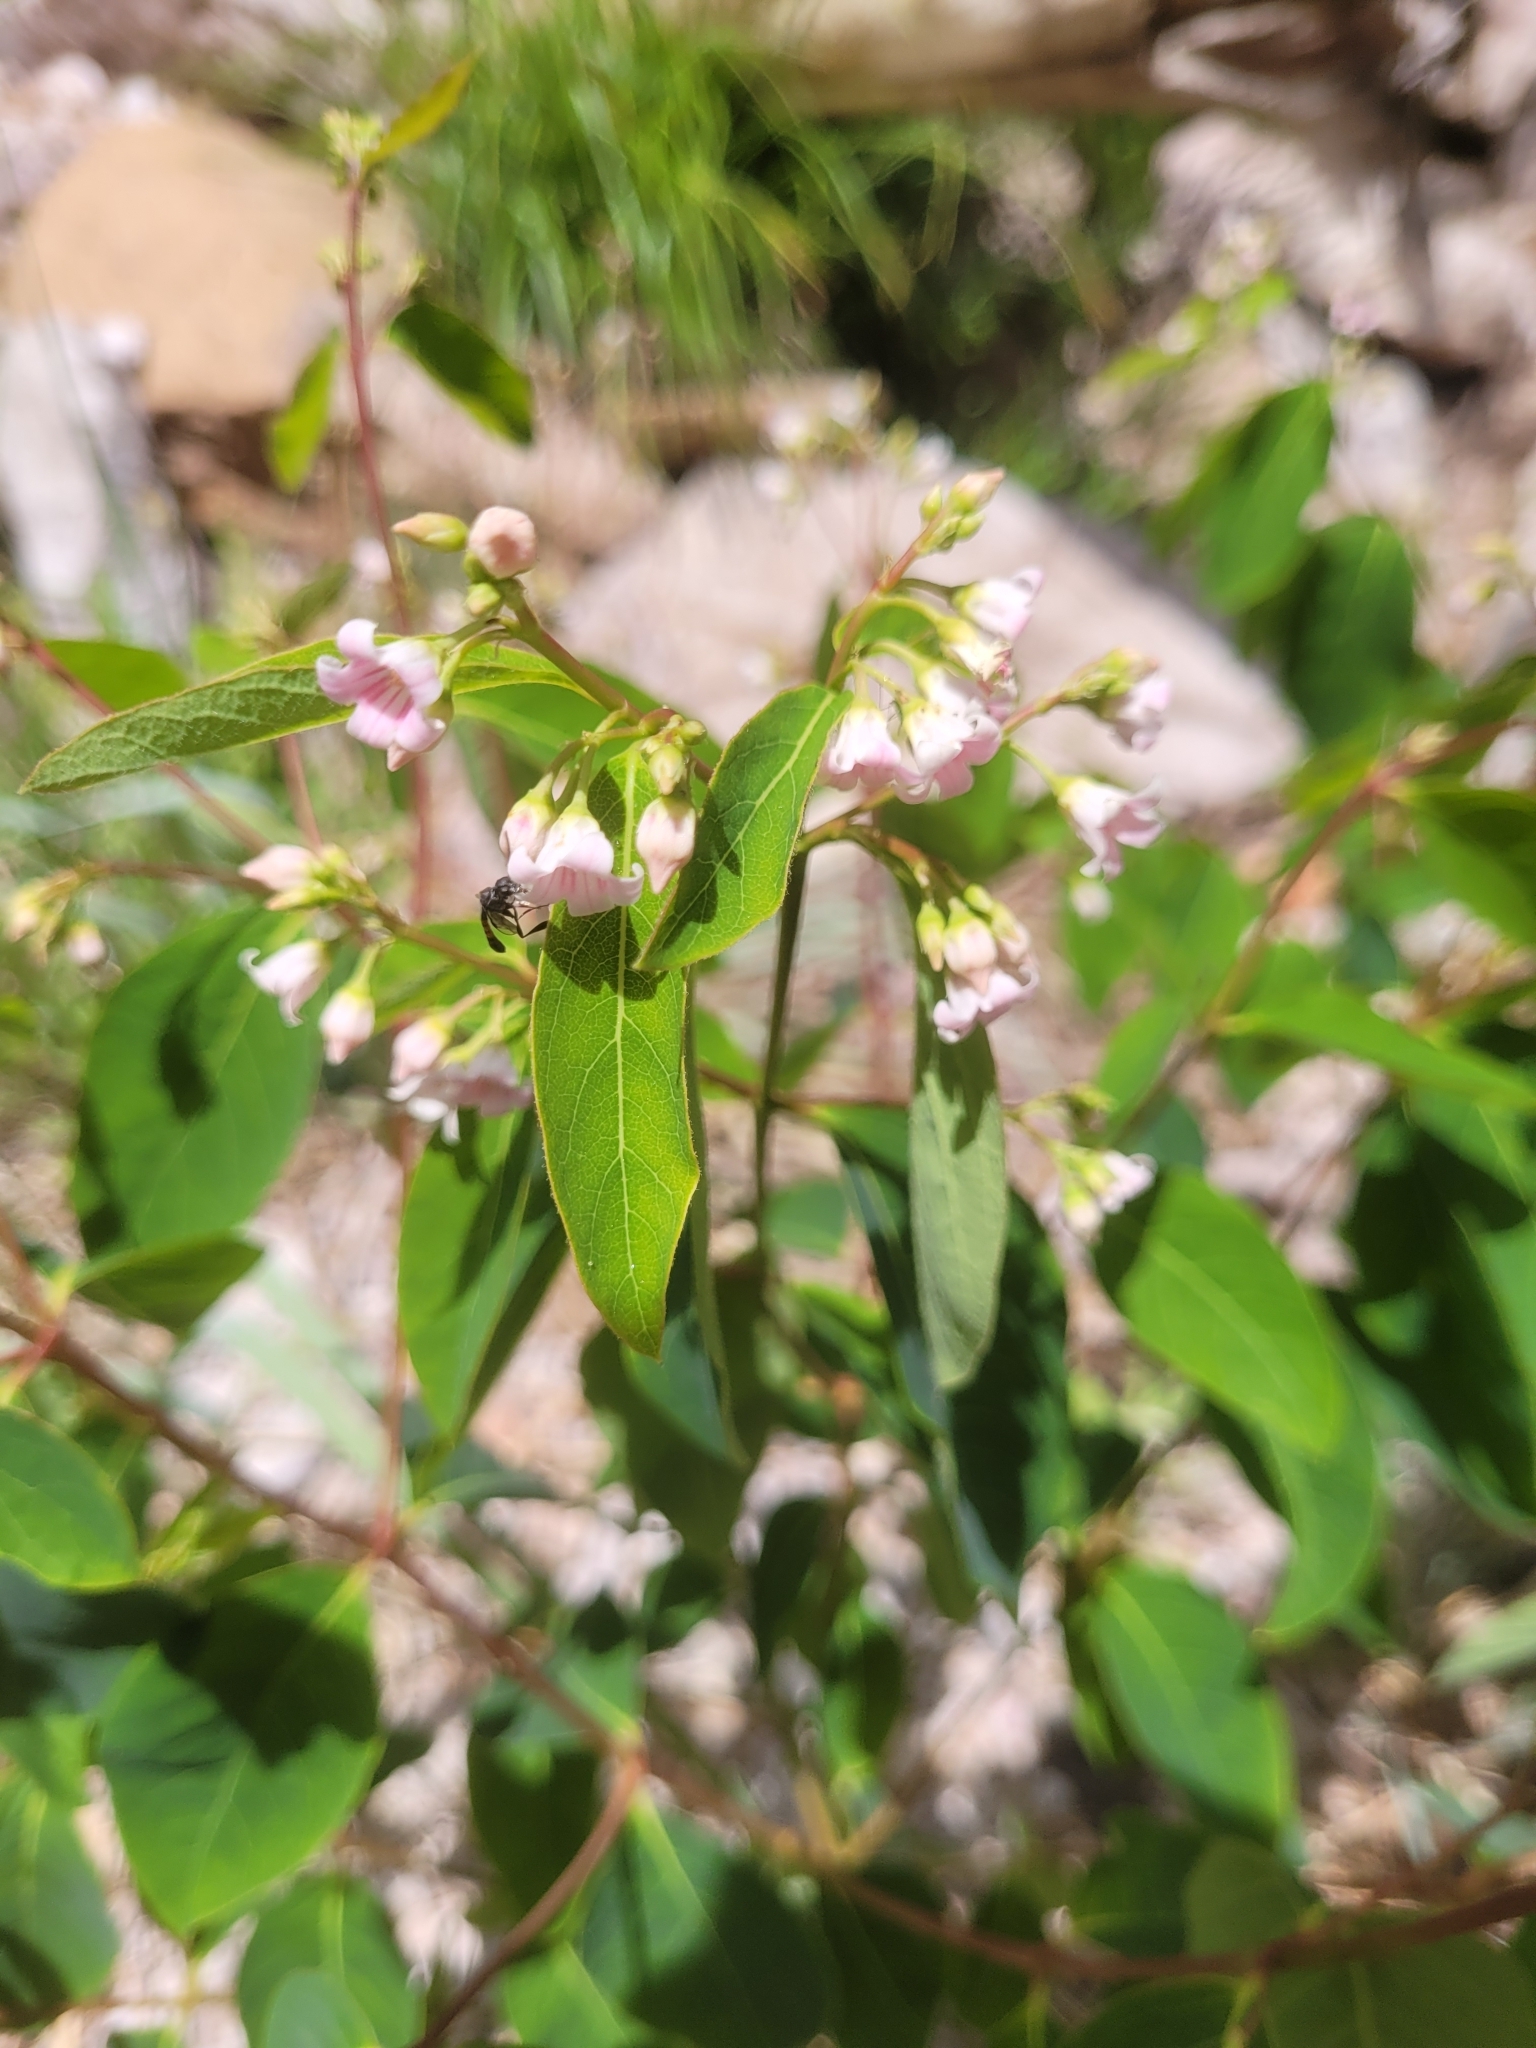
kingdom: Plantae
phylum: Tracheophyta
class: Magnoliopsida
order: Gentianales
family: Apocynaceae
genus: Apocynum
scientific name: Apocynum androsaemifolium
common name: Spreading dogbane
